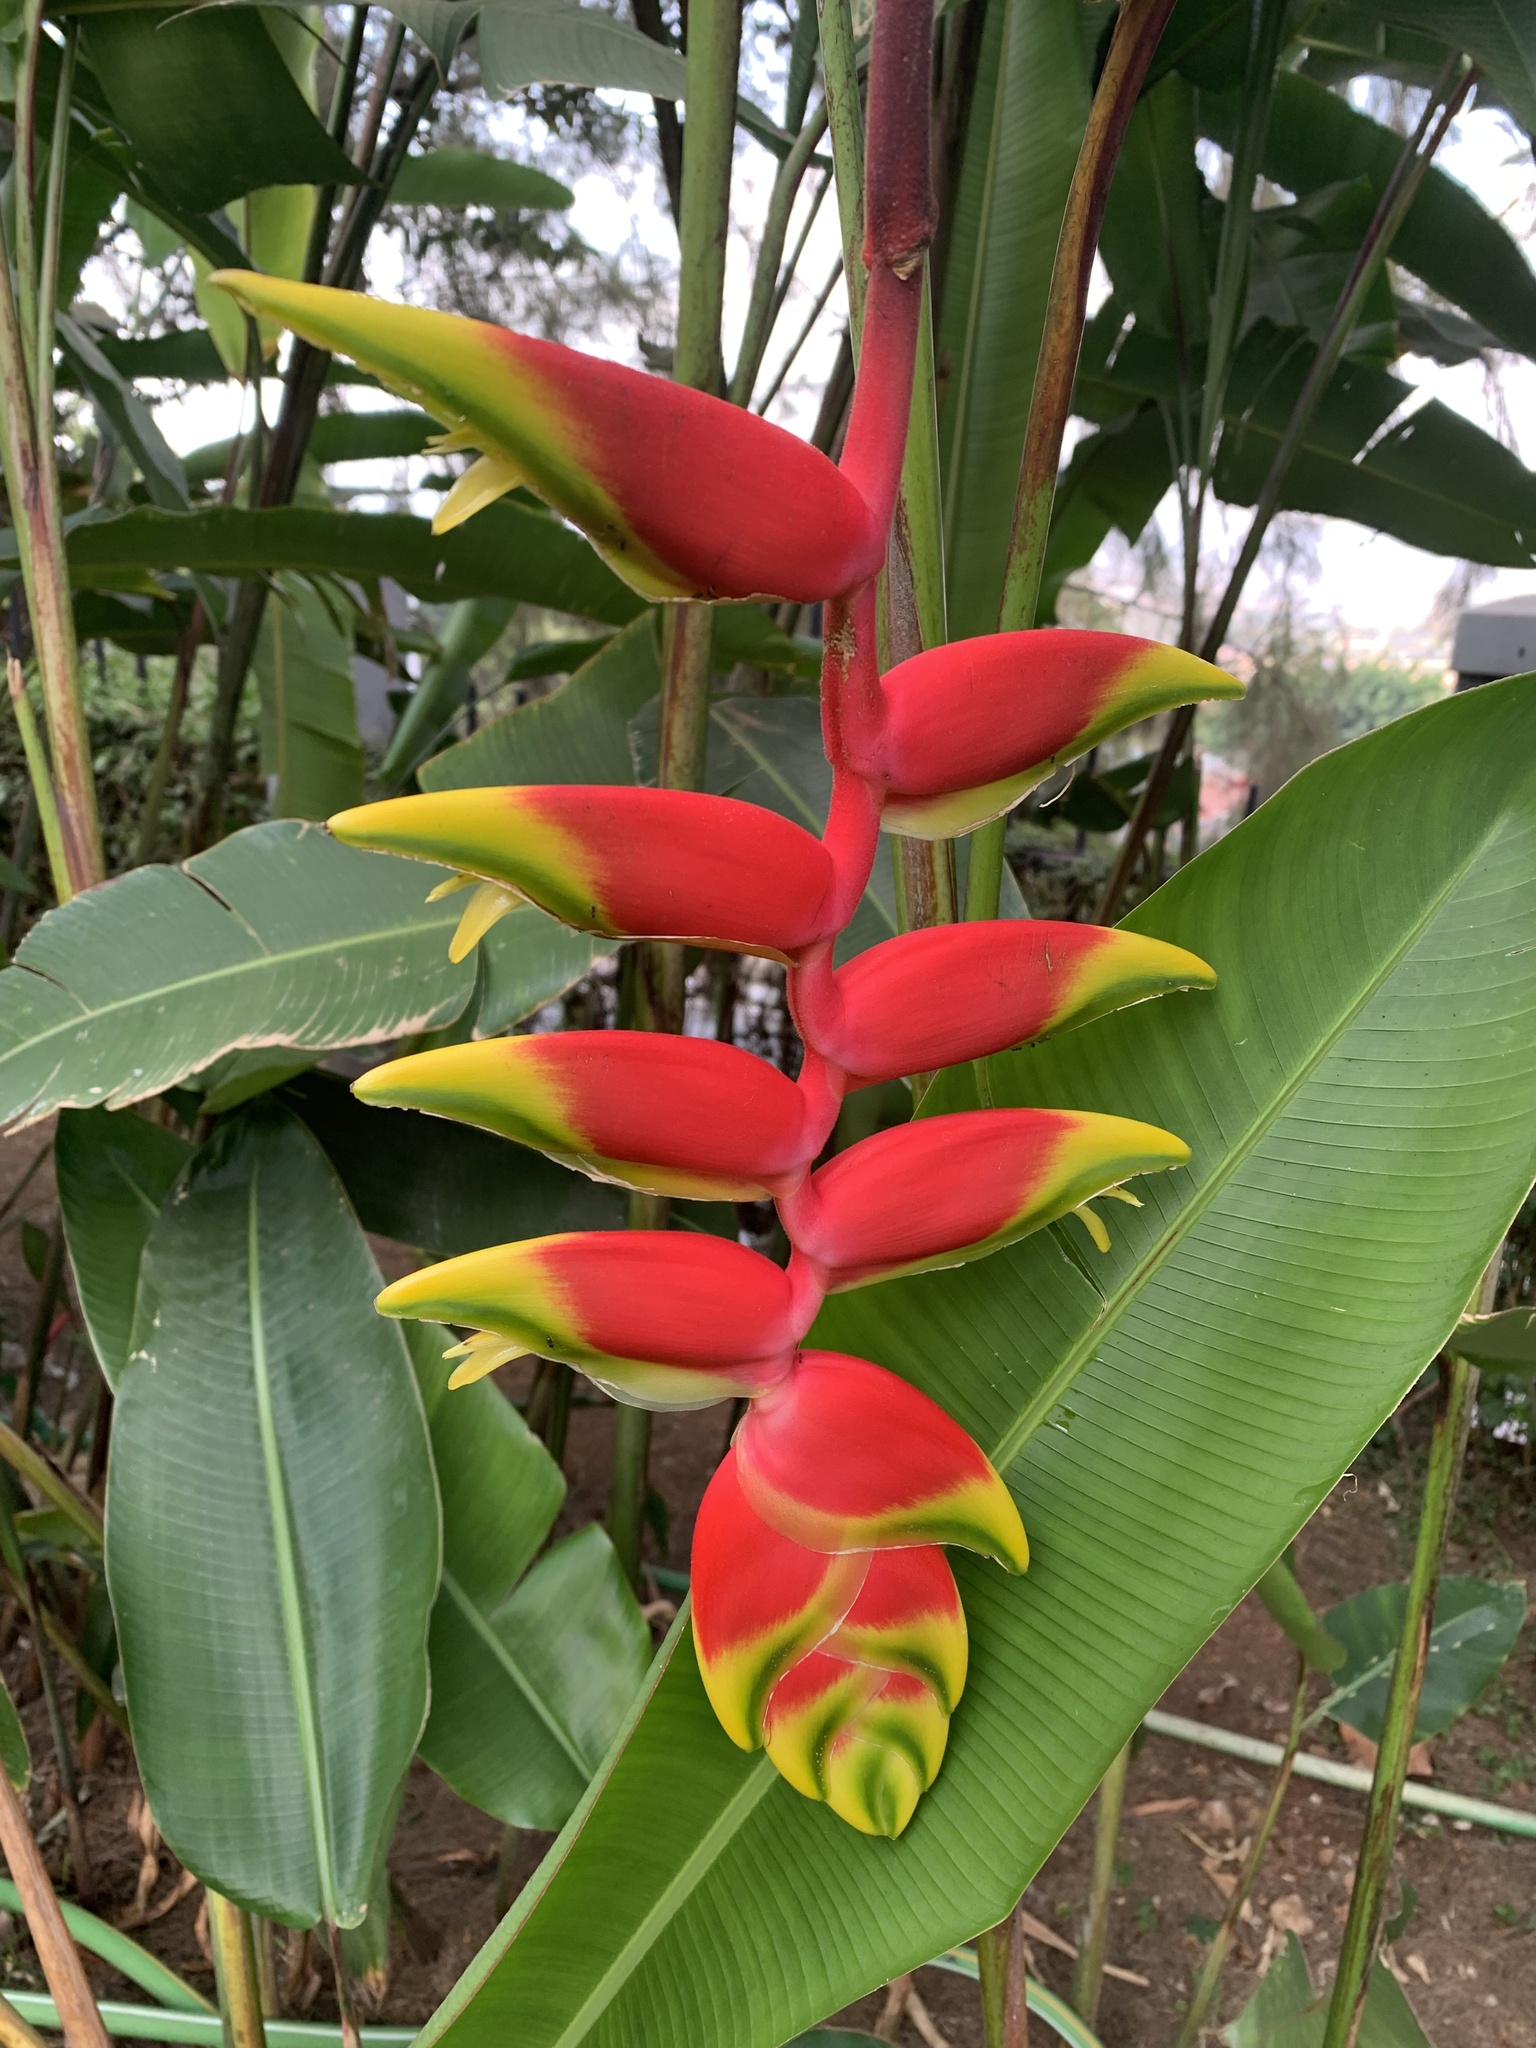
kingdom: Plantae
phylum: Tracheophyta
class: Liliopsida
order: Zingiberales
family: Heliconiaceae
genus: Heliconia
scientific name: Heliconia rostrata
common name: False bird of paradise
